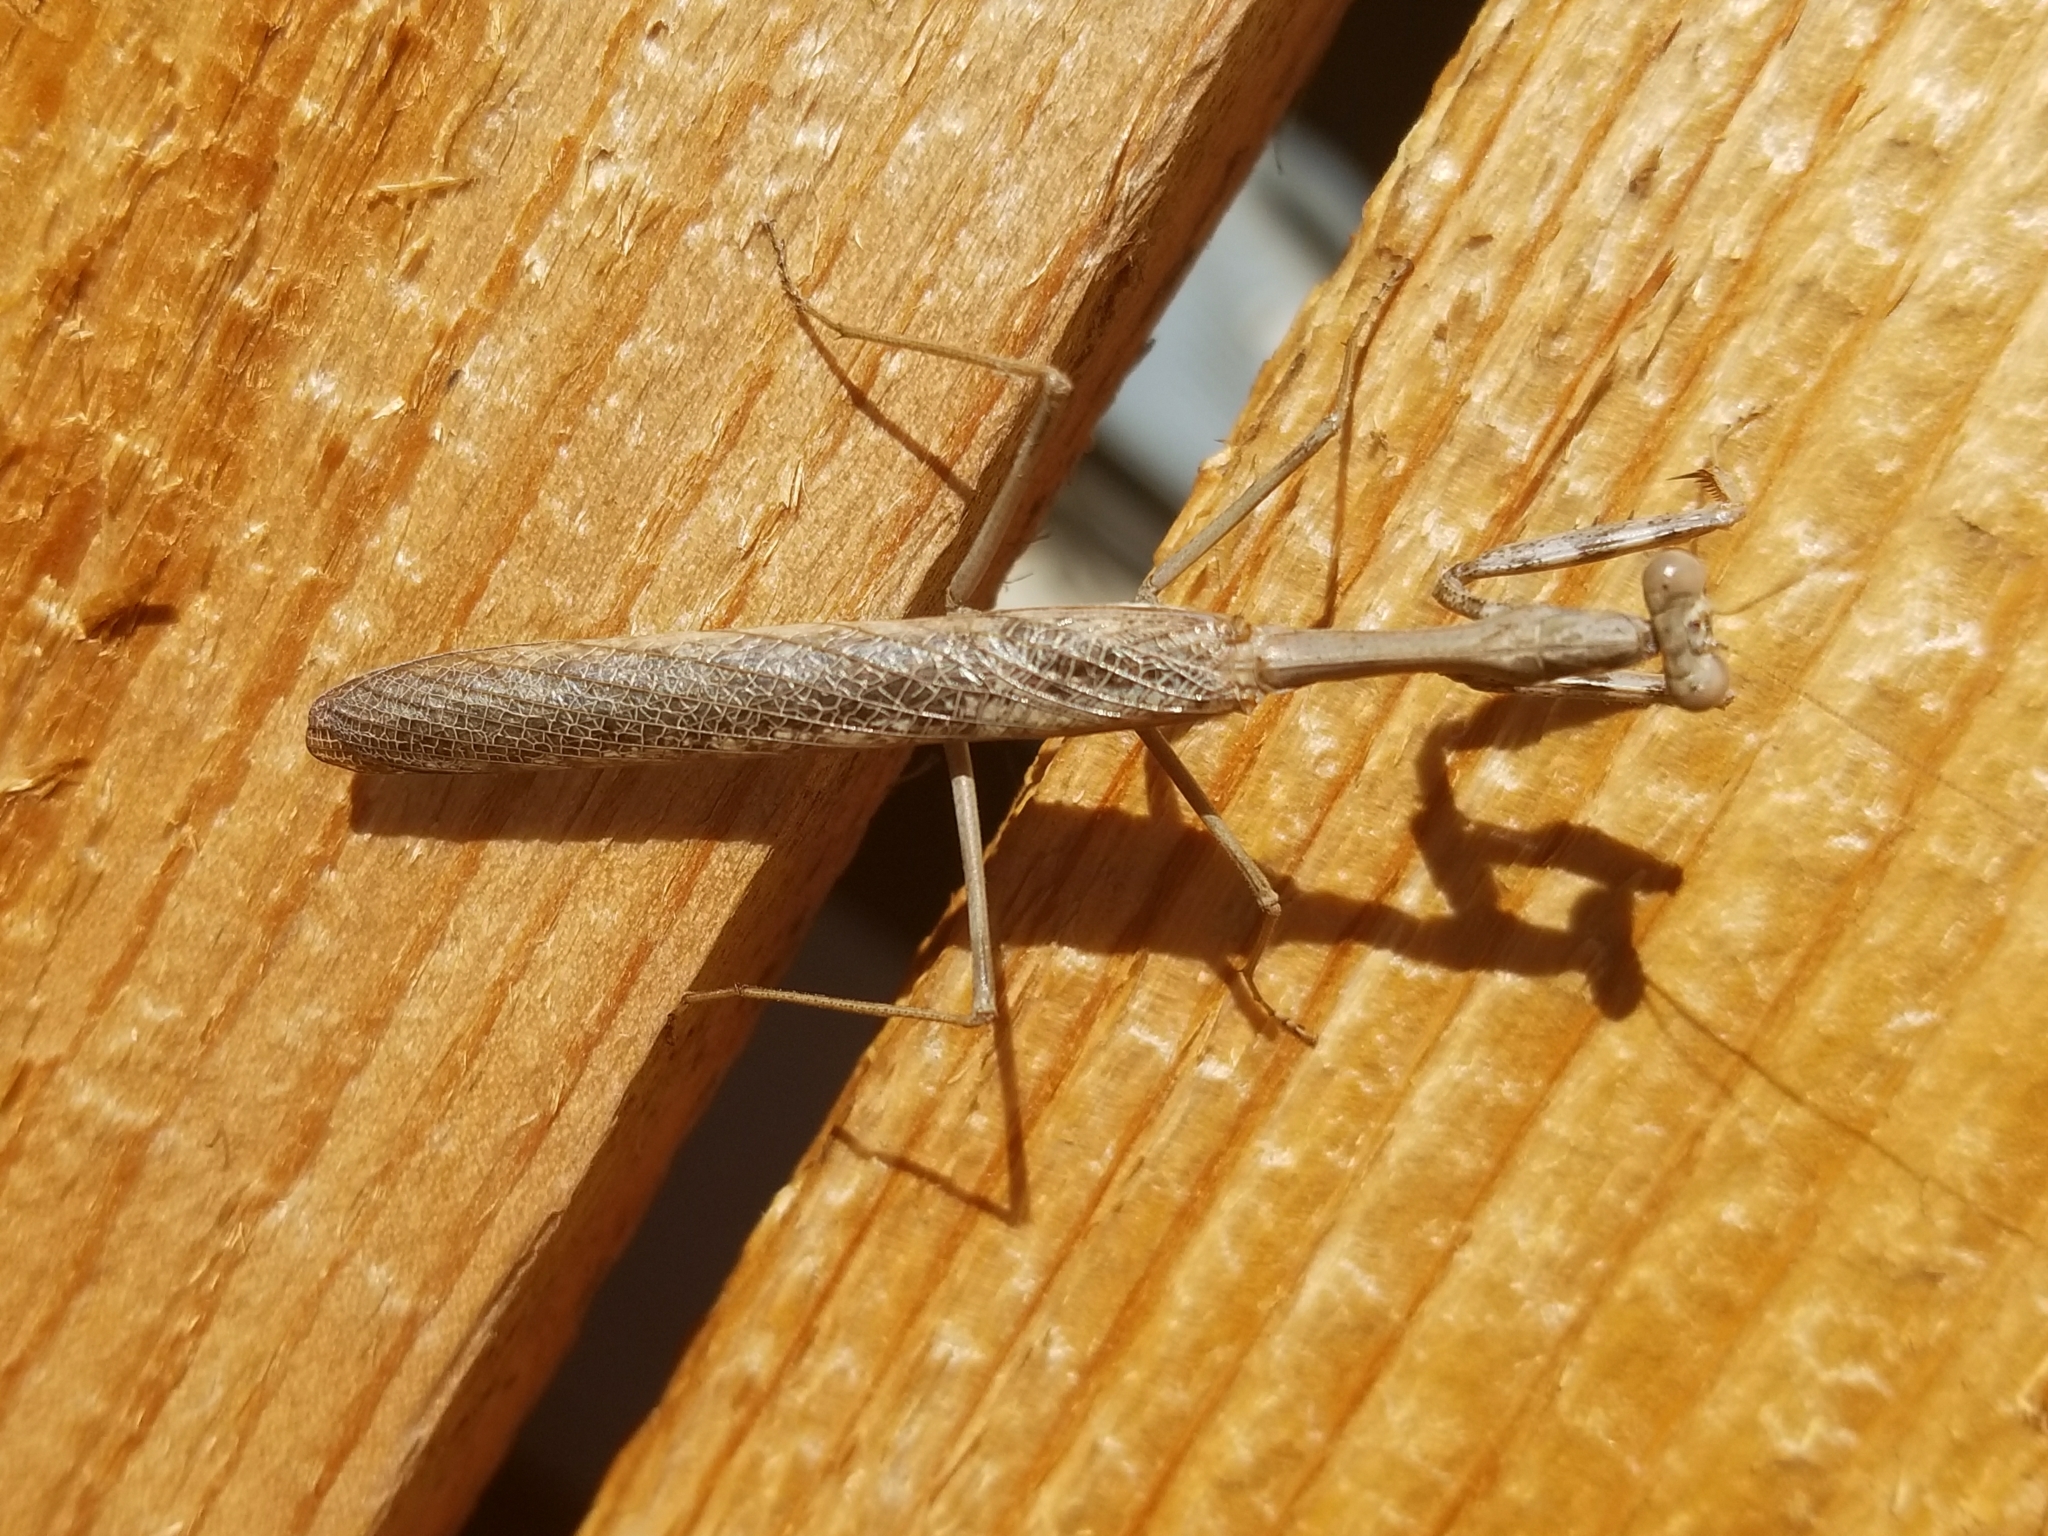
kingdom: Animalia
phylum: Arthropoda
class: Insecta
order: Mantodea
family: Mantidae
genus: Stagmomantis
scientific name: Stagmomantis californica
